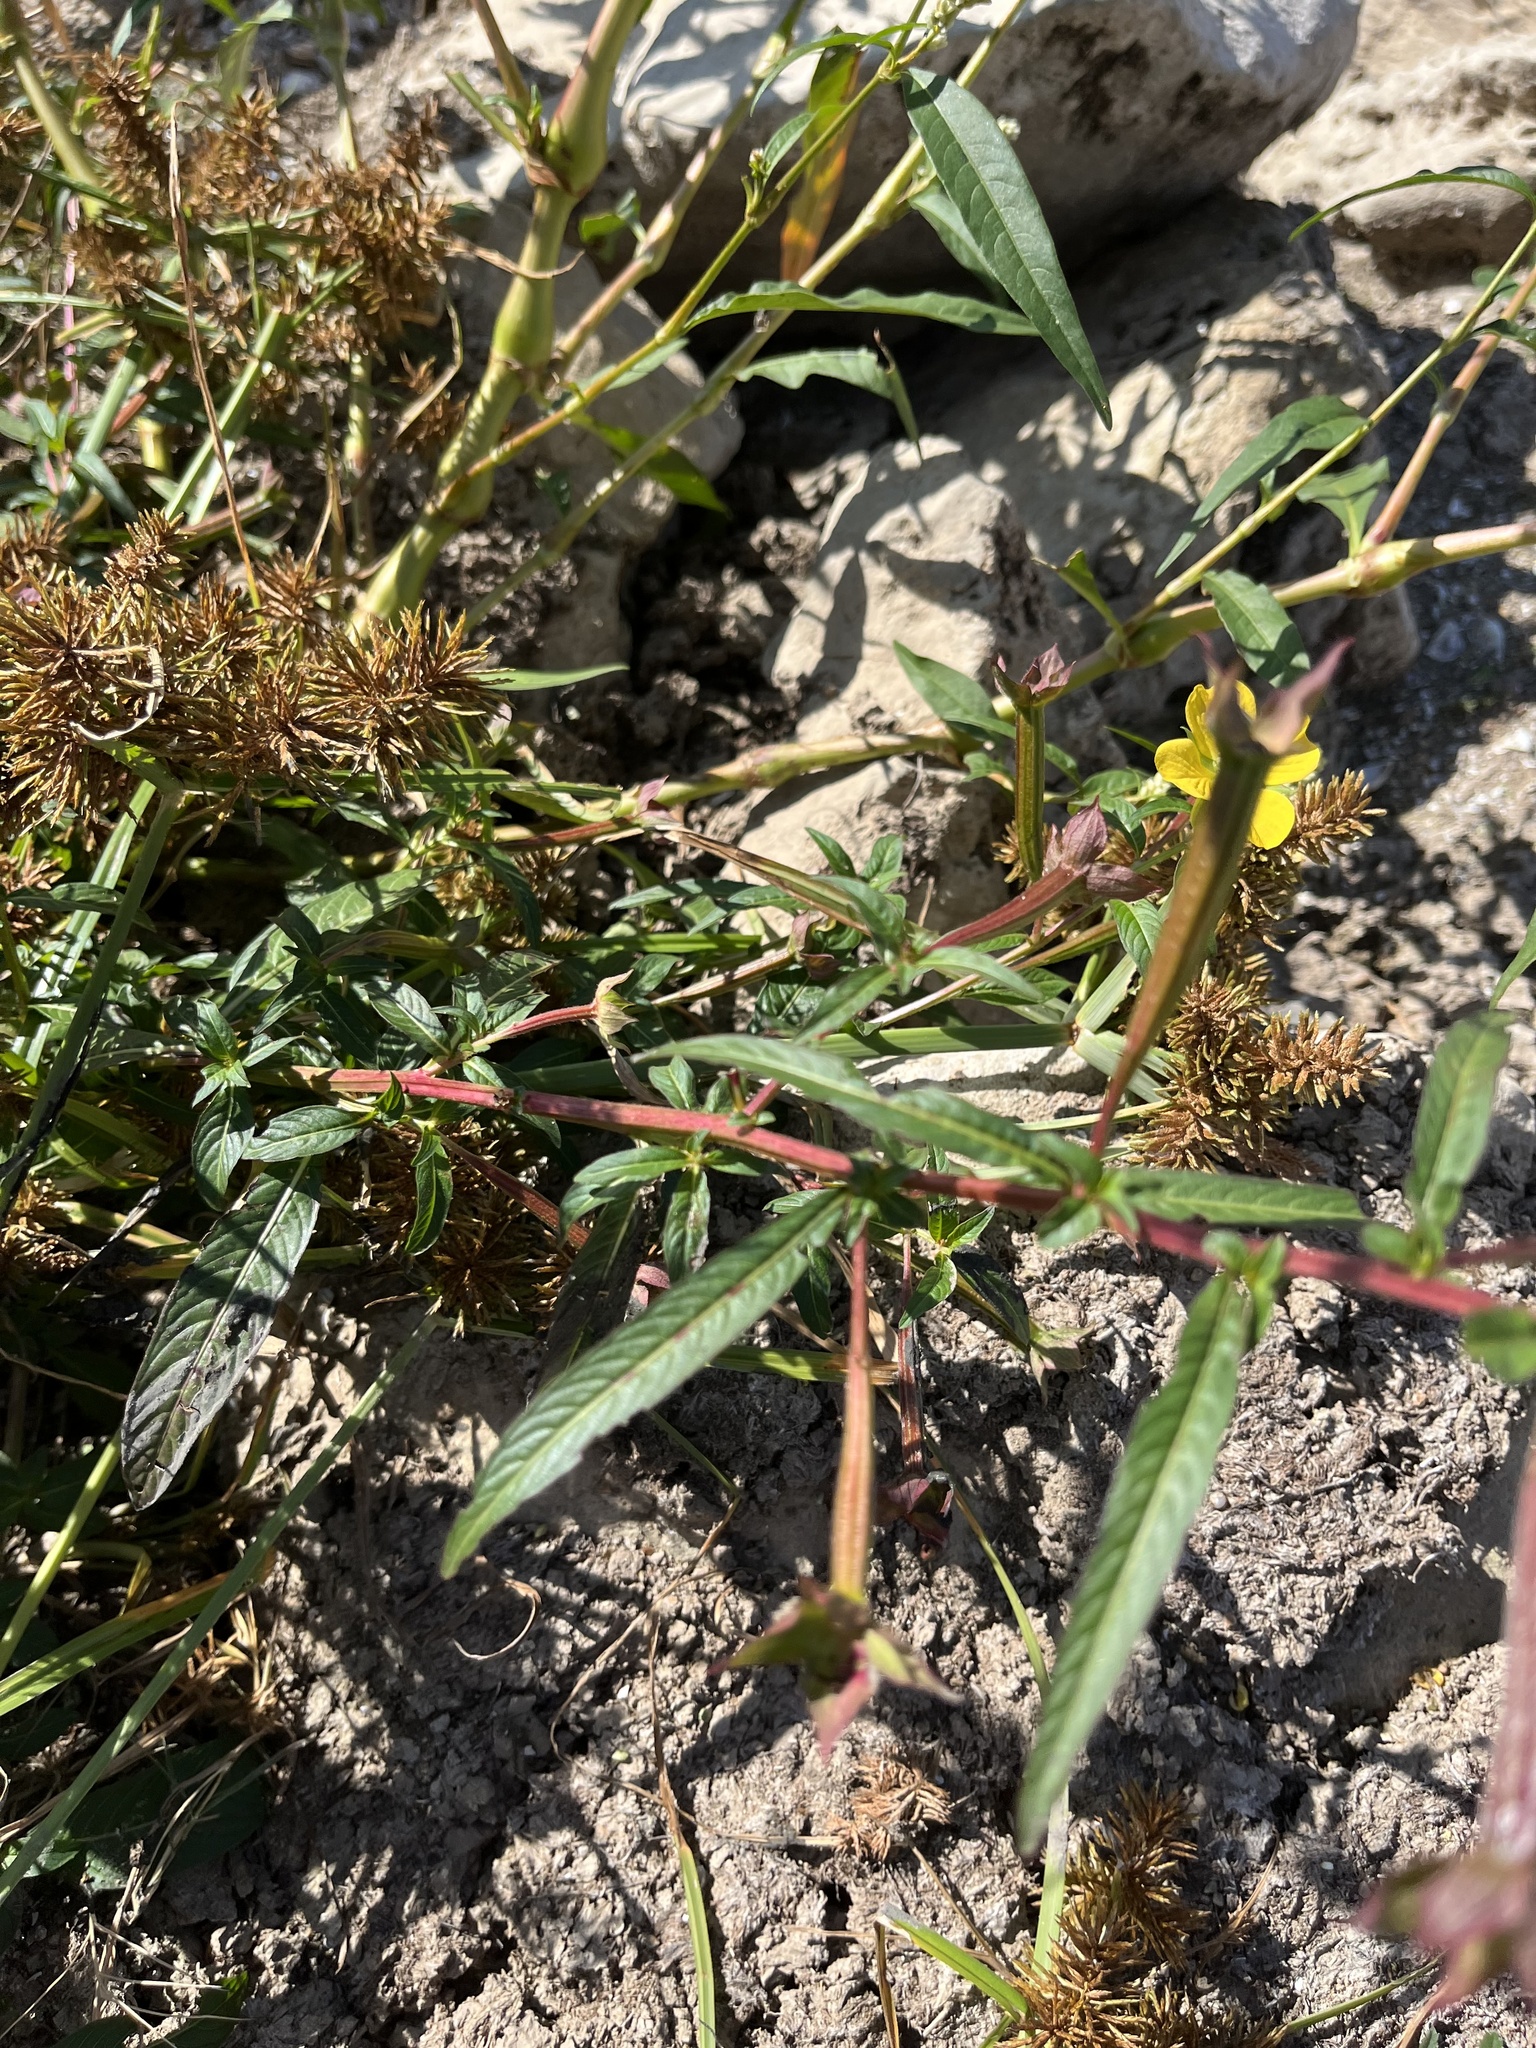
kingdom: Plantae
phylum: Tracheophyta
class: Magnoliopsida
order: Myrtales
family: Onagraceae
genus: Ludwigia
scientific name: Ludwigia octovalvis
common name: Water-primrose
